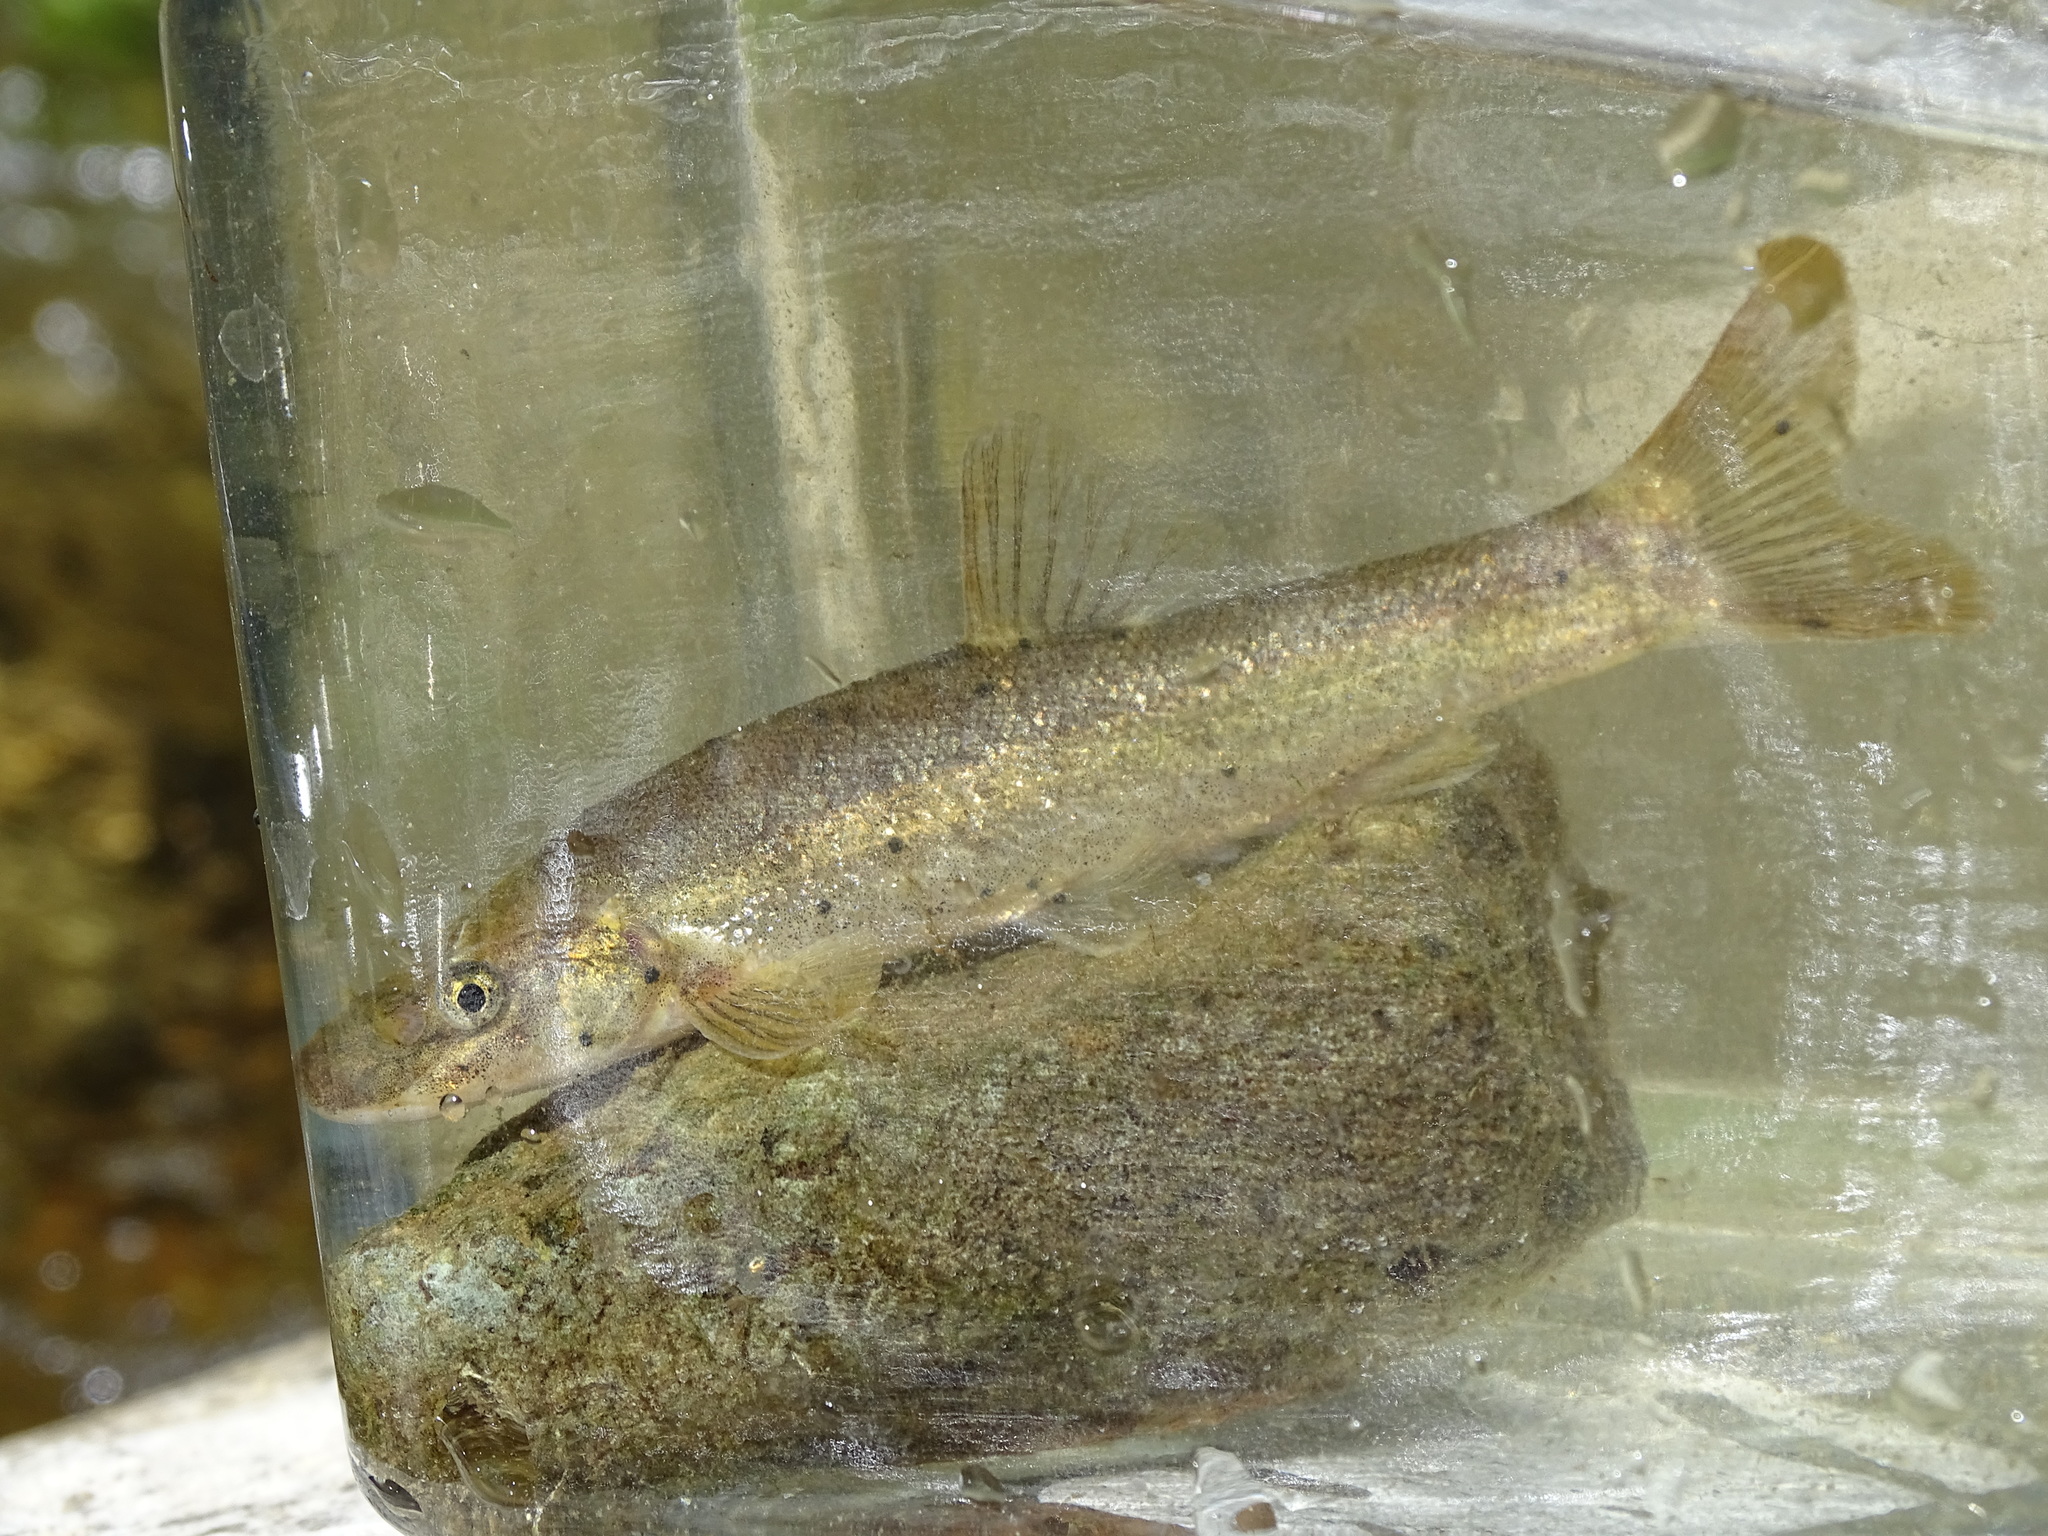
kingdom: Animalia
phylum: Chordata
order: Cypriniformes
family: Cyprinidae
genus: Rhinichthys
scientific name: Rhinichthys cataractae
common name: Longnose dace
